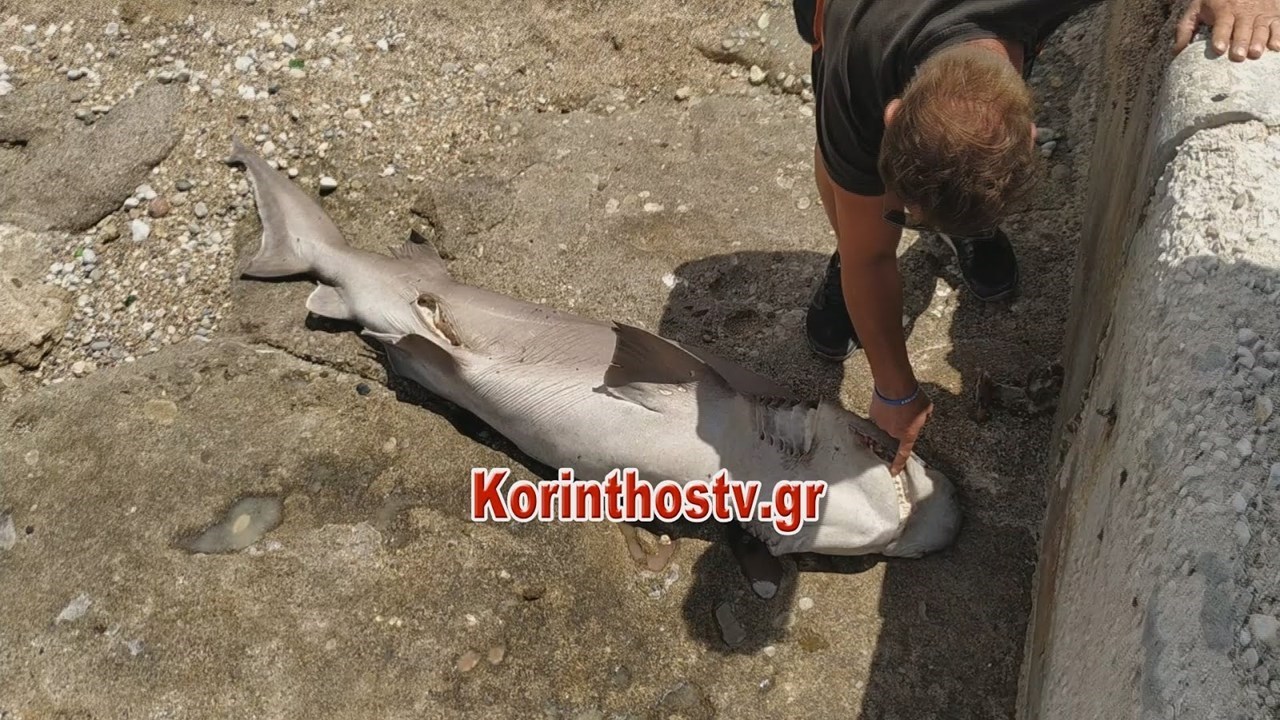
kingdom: Animalia
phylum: Chordata
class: Elasmobranchii
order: Hexanchiformes
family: Hexanchidae
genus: Hexanchus
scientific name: Hexanchus griseus
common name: Bluntnose sixgill shark
